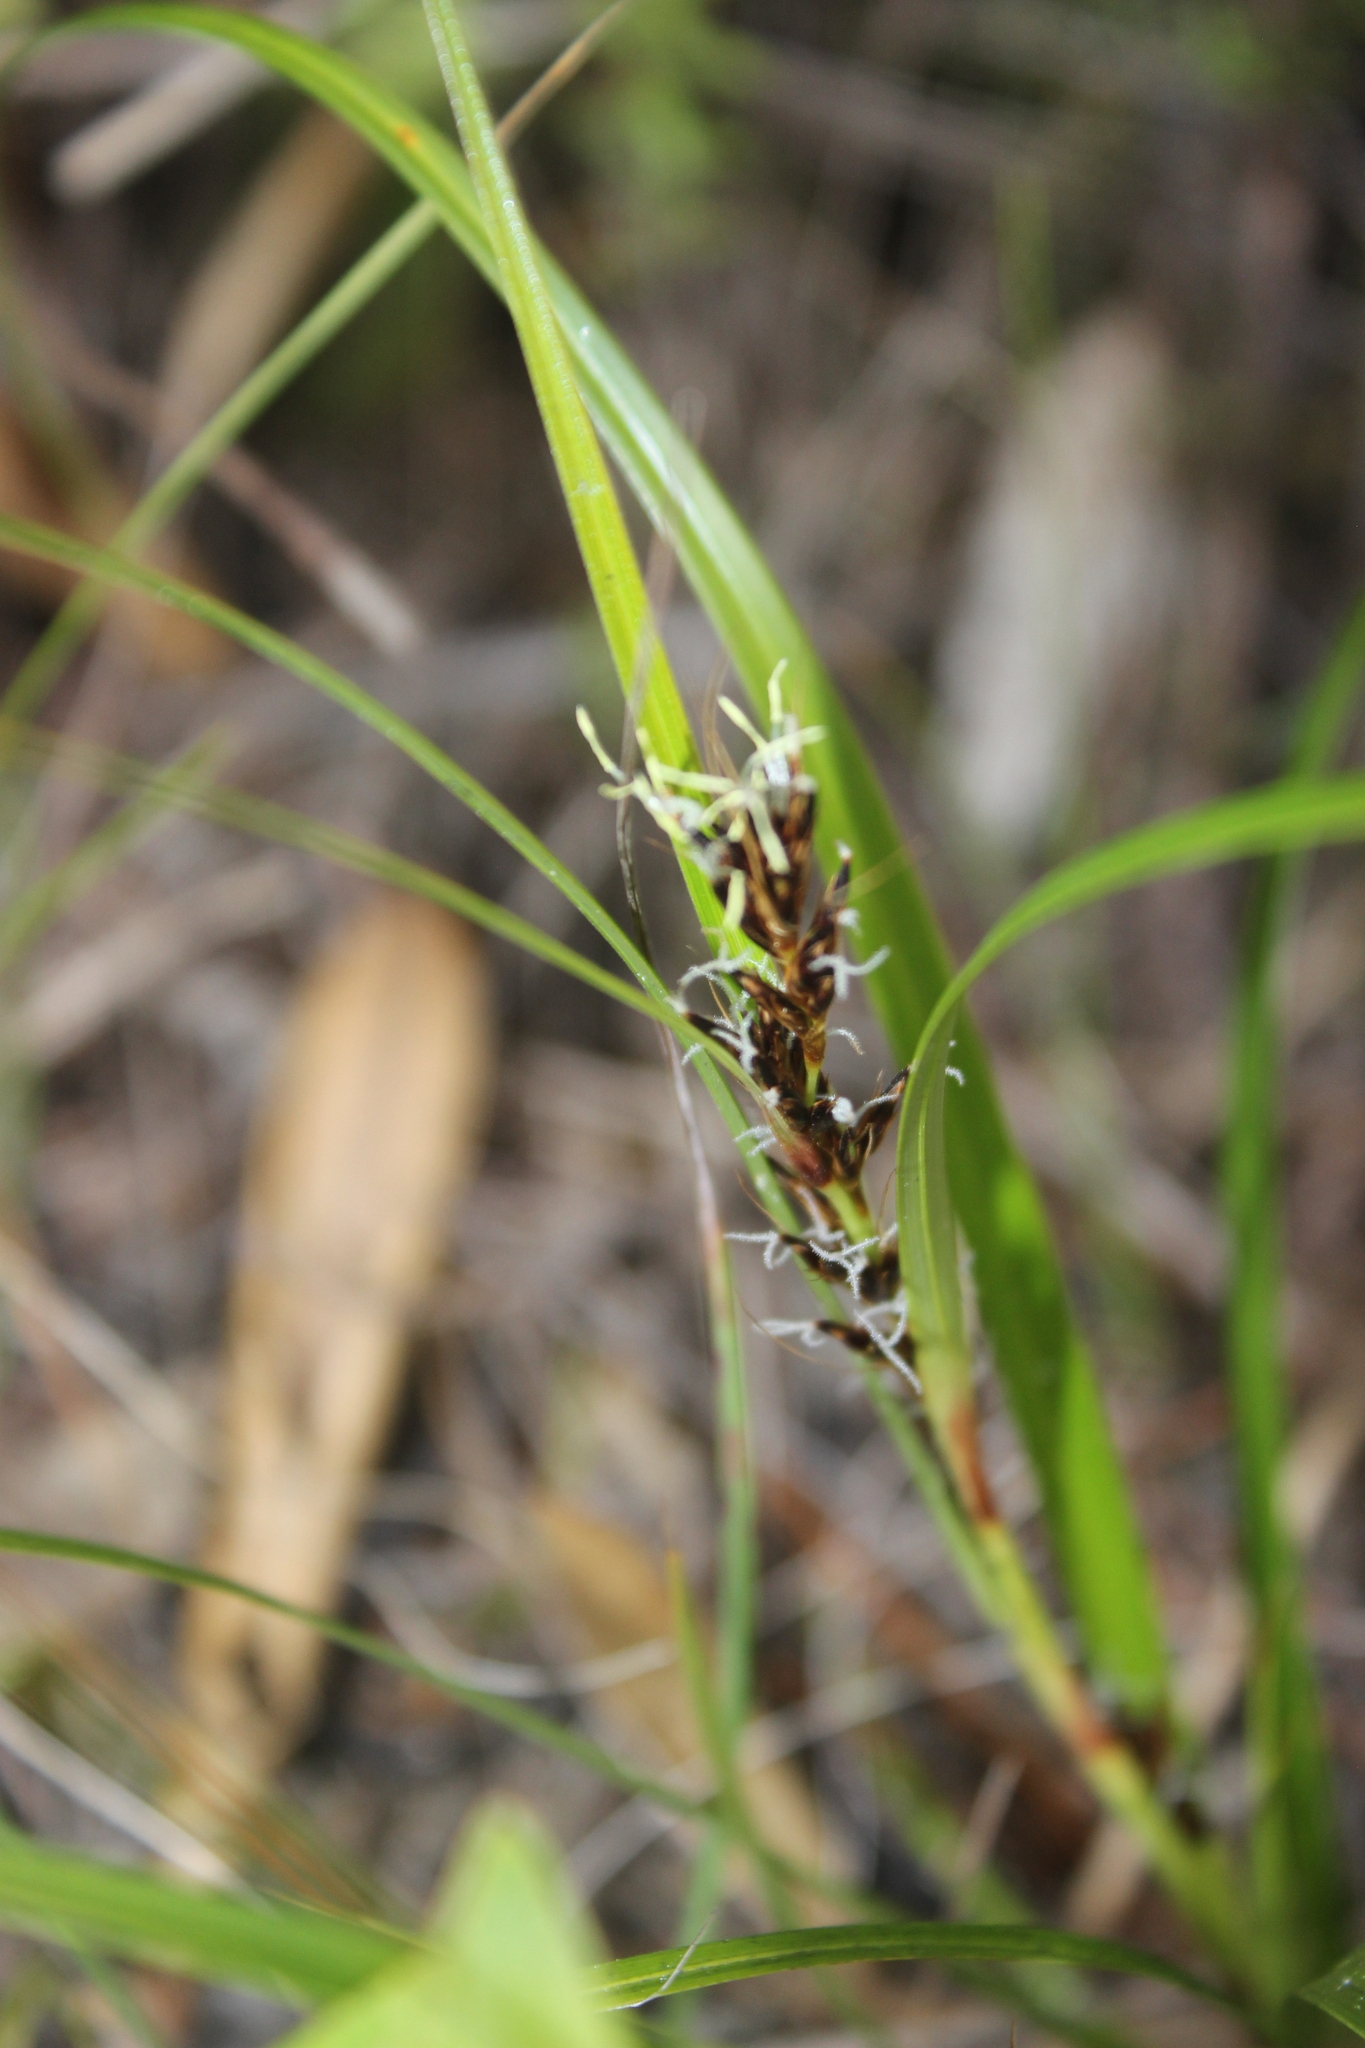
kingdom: Plantae
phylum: Tracheophyta
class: Liliopsida
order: Poales
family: Cyperaceae
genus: Morelotia
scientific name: Morelotia affinis
